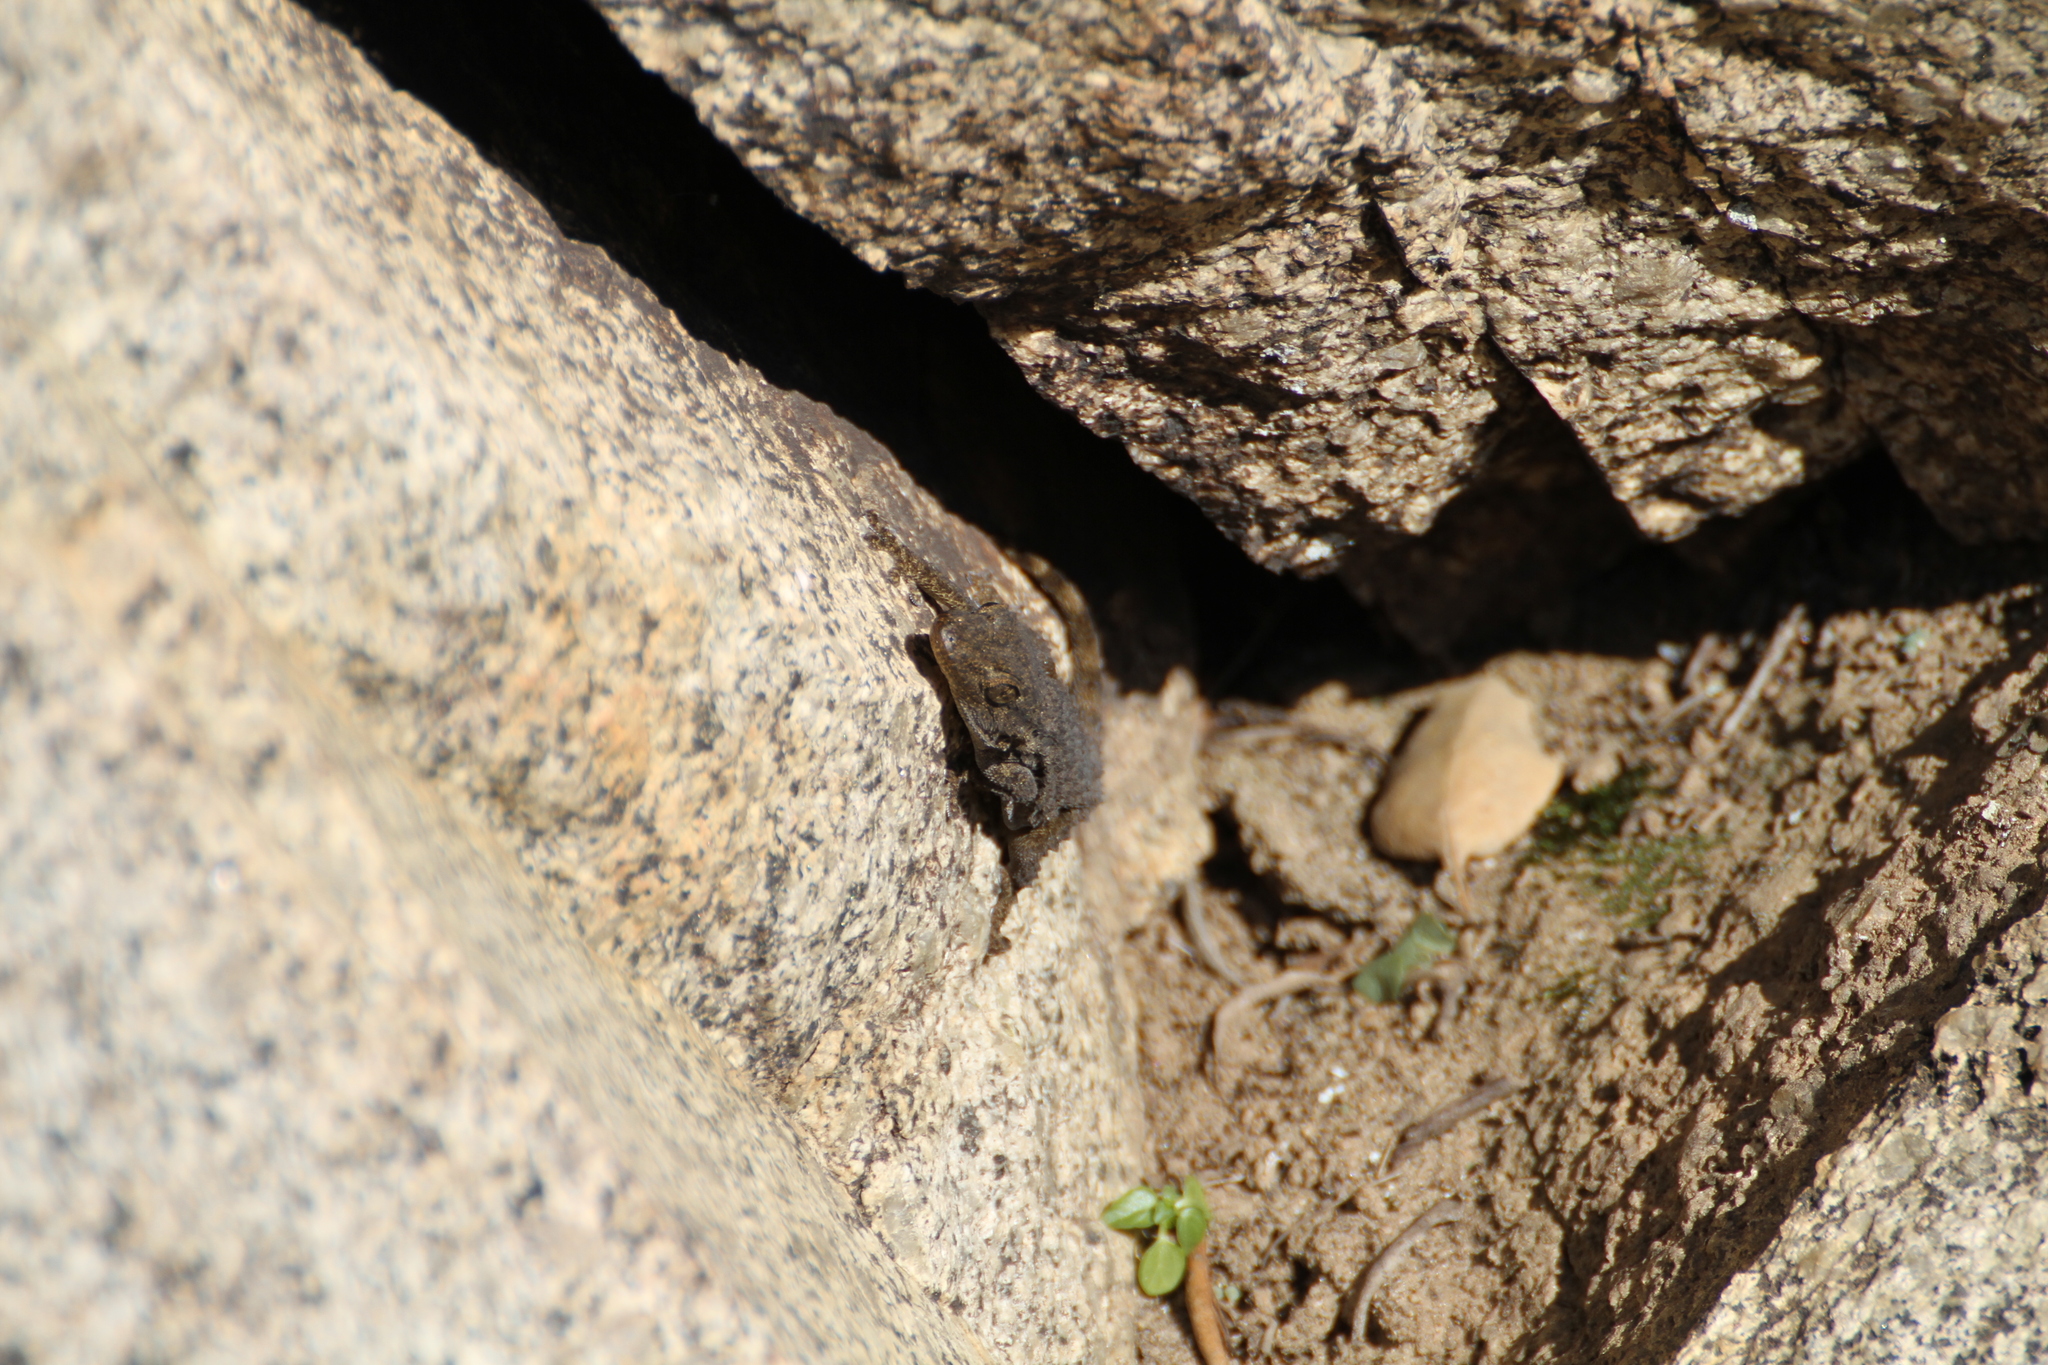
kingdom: Animalia
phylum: Chordata
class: Squamata
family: Phyllodactylidae
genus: Tarentola
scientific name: Tarentola mauritanica
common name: Moorish gecko
